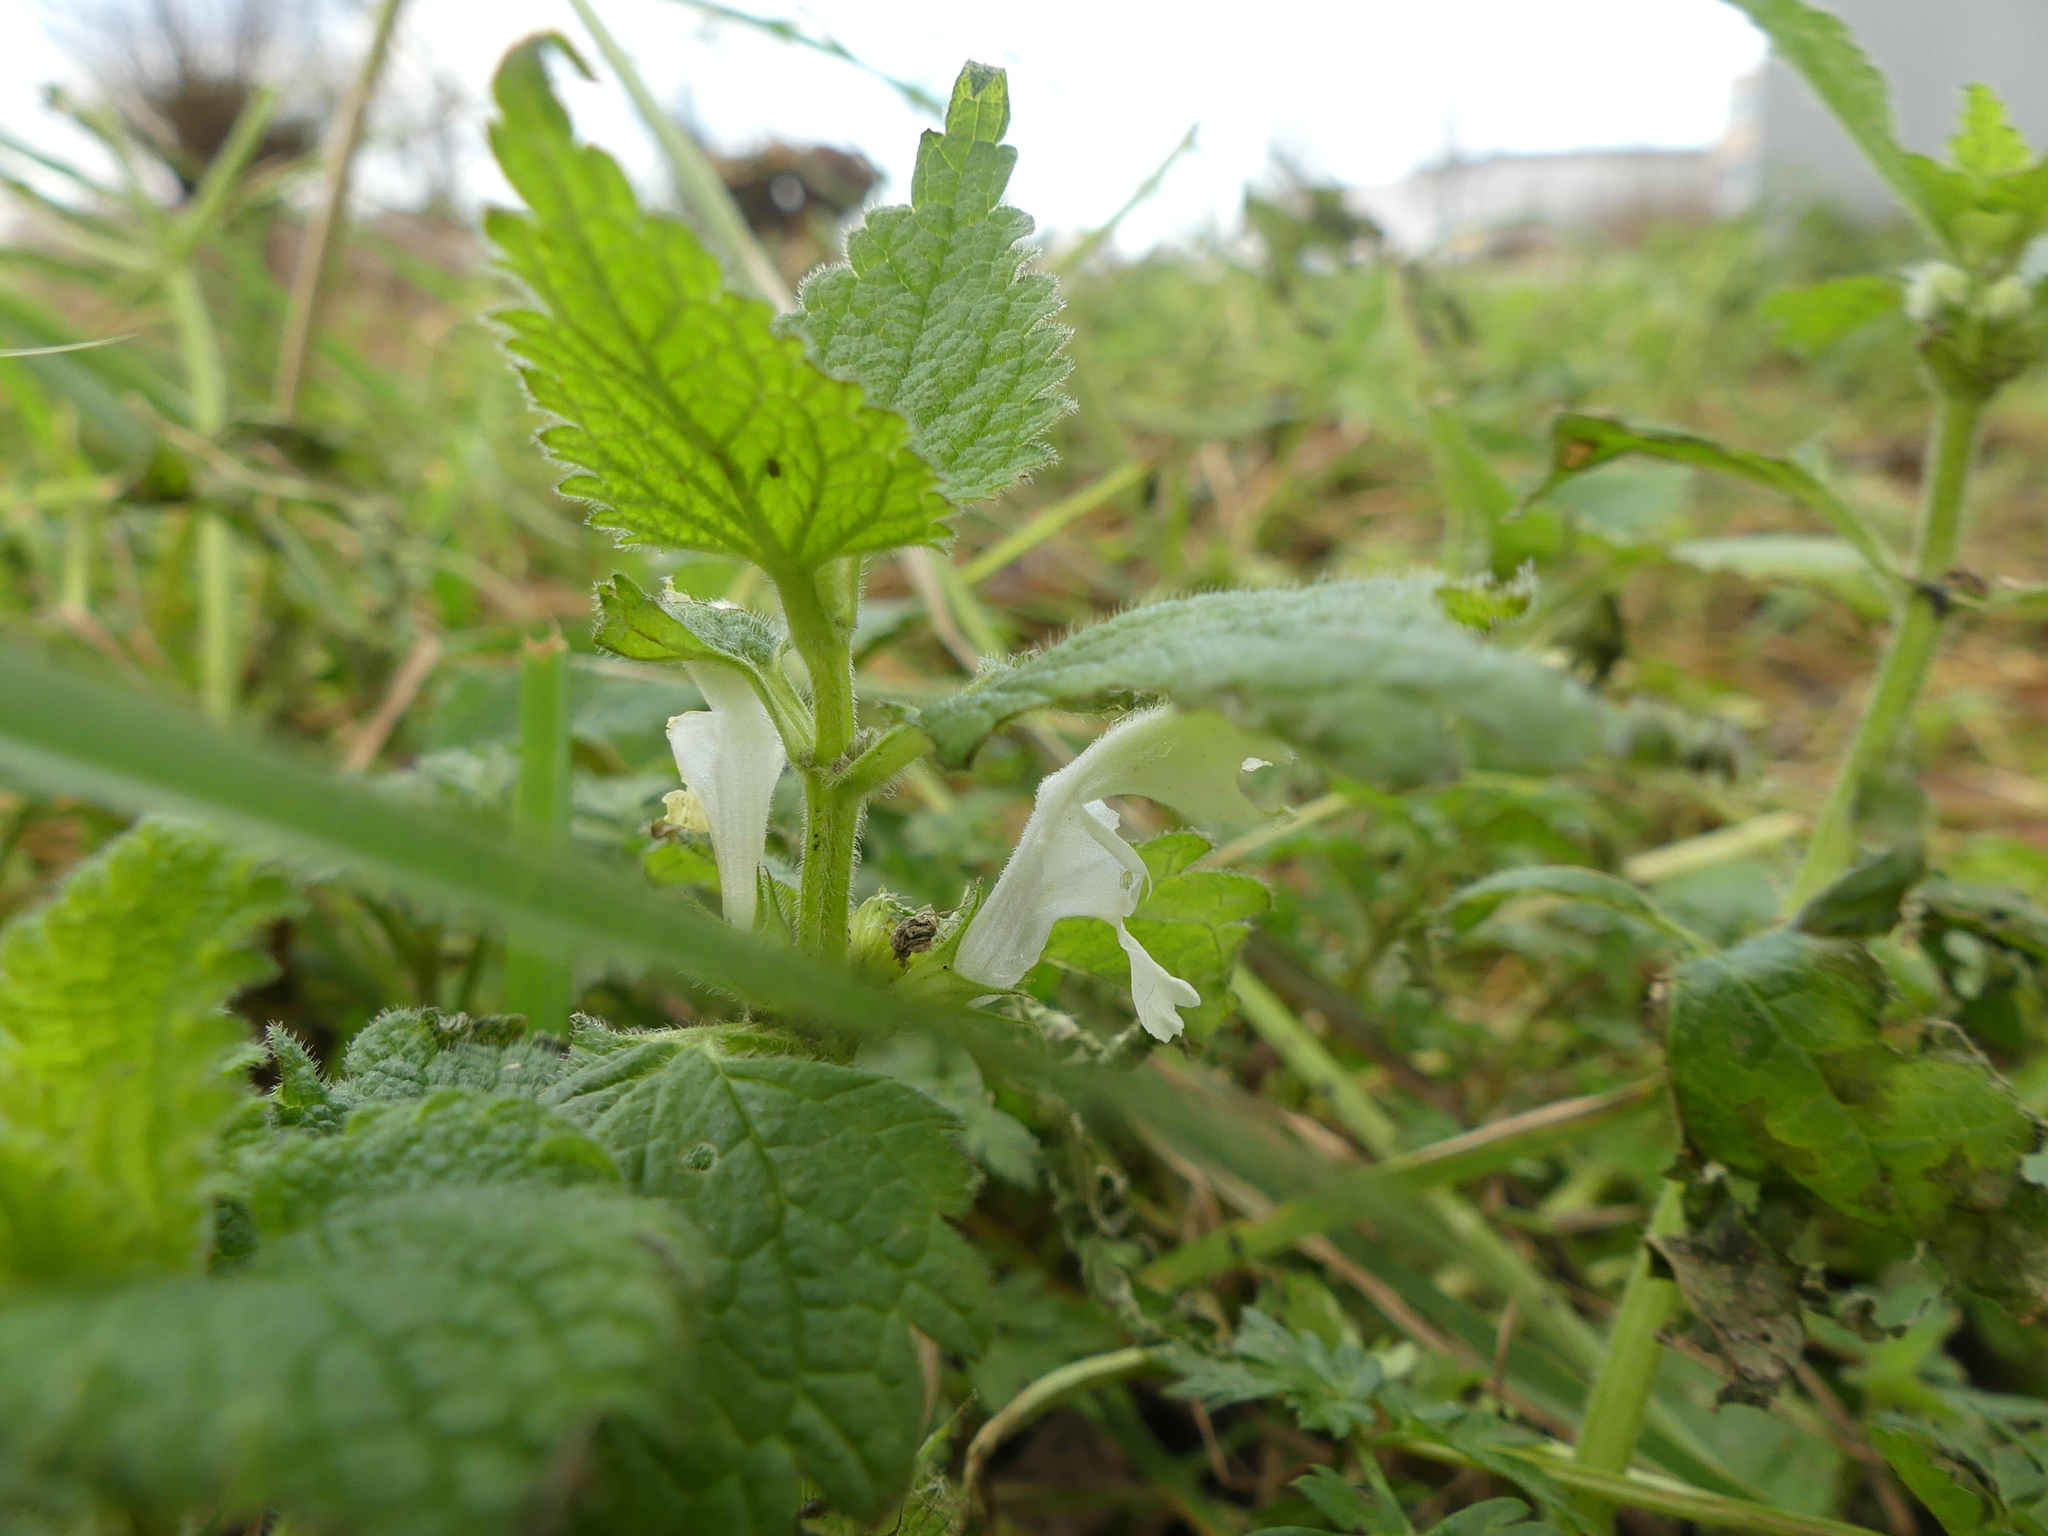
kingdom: Plantae
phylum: Tracheophyta
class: Magnoliopsida
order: Lamiales
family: Lamiaceae
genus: Lamium
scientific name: Lamium album
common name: White dead-nettle
